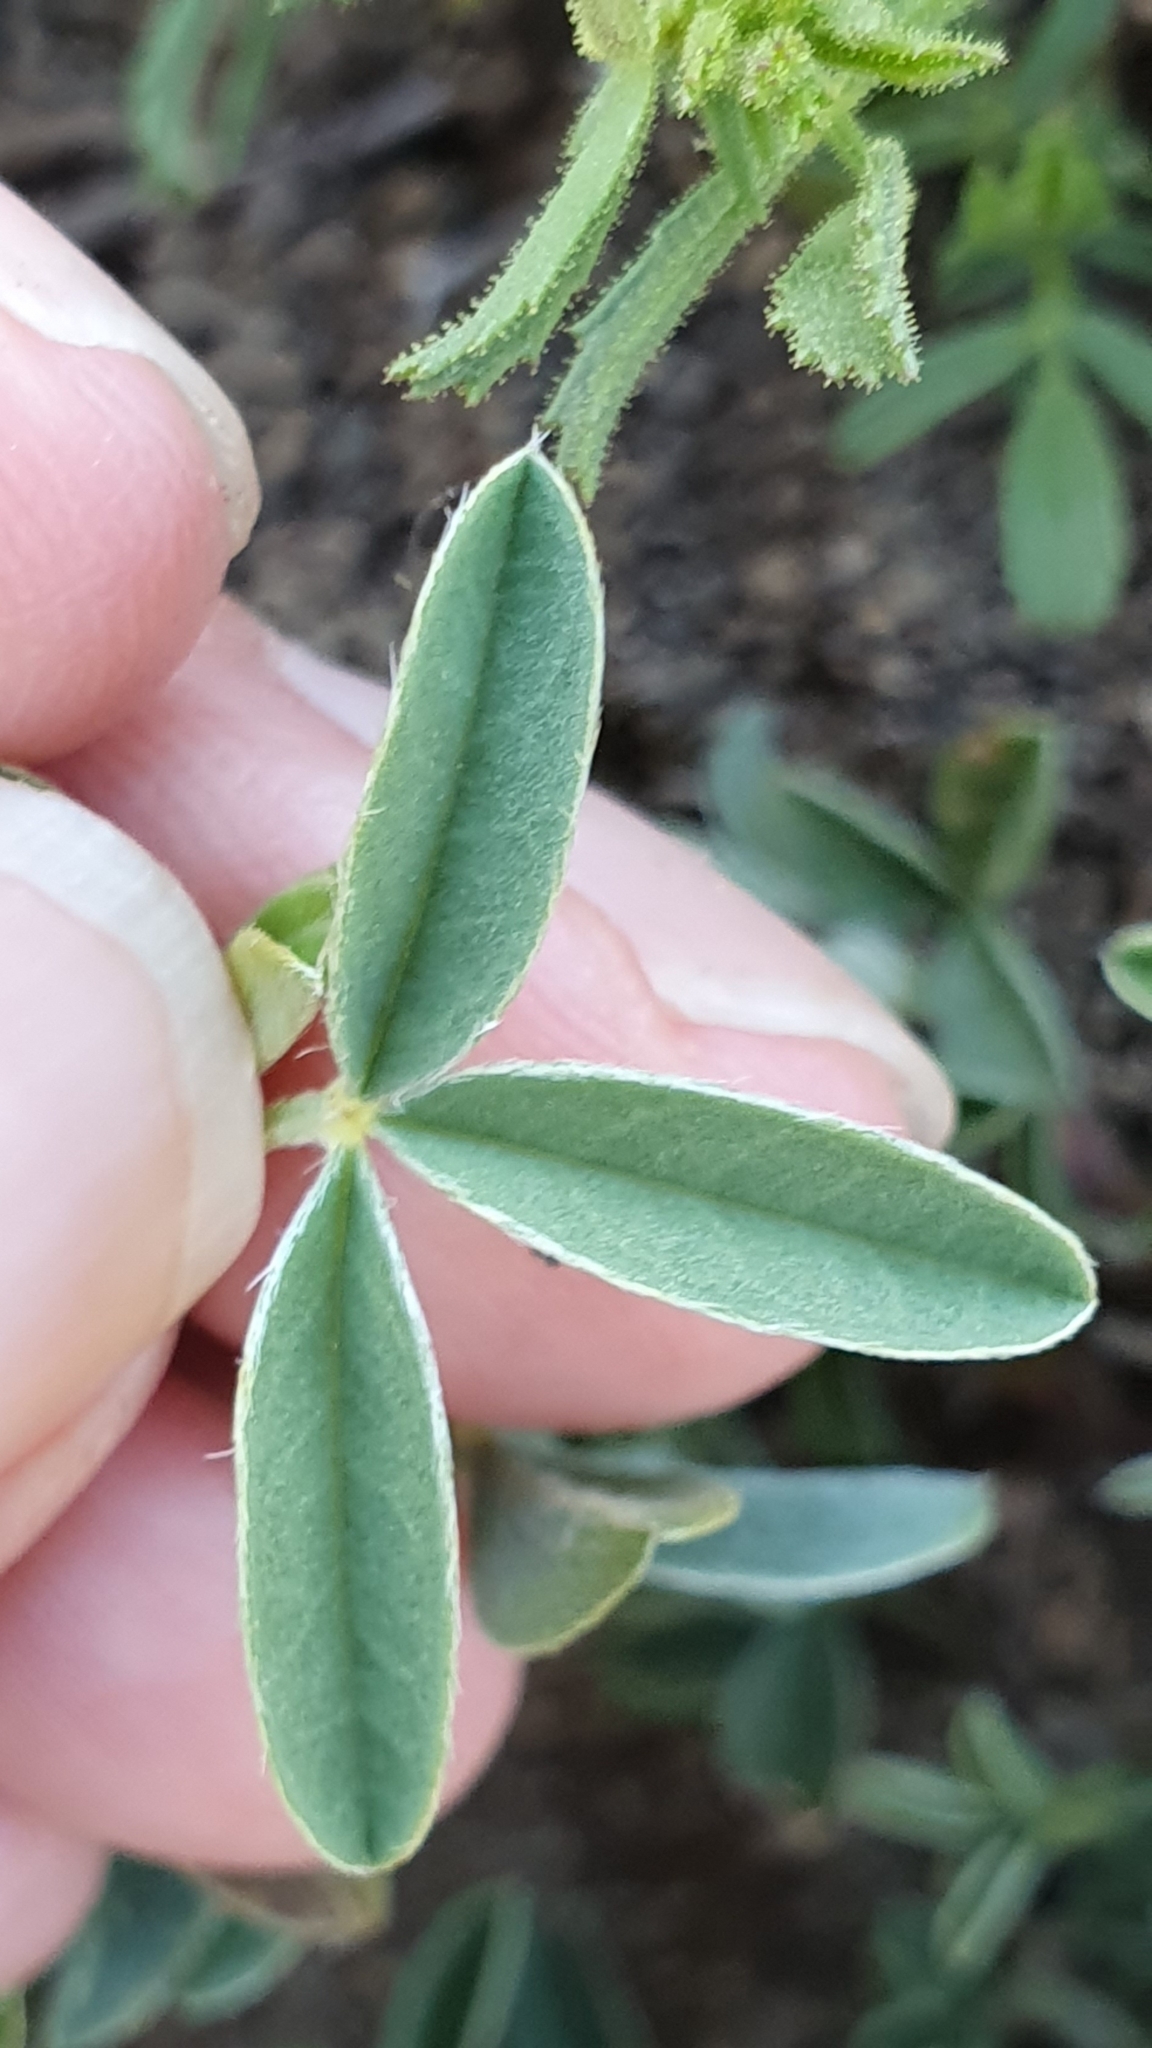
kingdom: Plantae
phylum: Tracheophyta
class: Magnoliopsida
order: Fabales
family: Fabaceae
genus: Argyrolobium
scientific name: Argyrolobium zanonii
